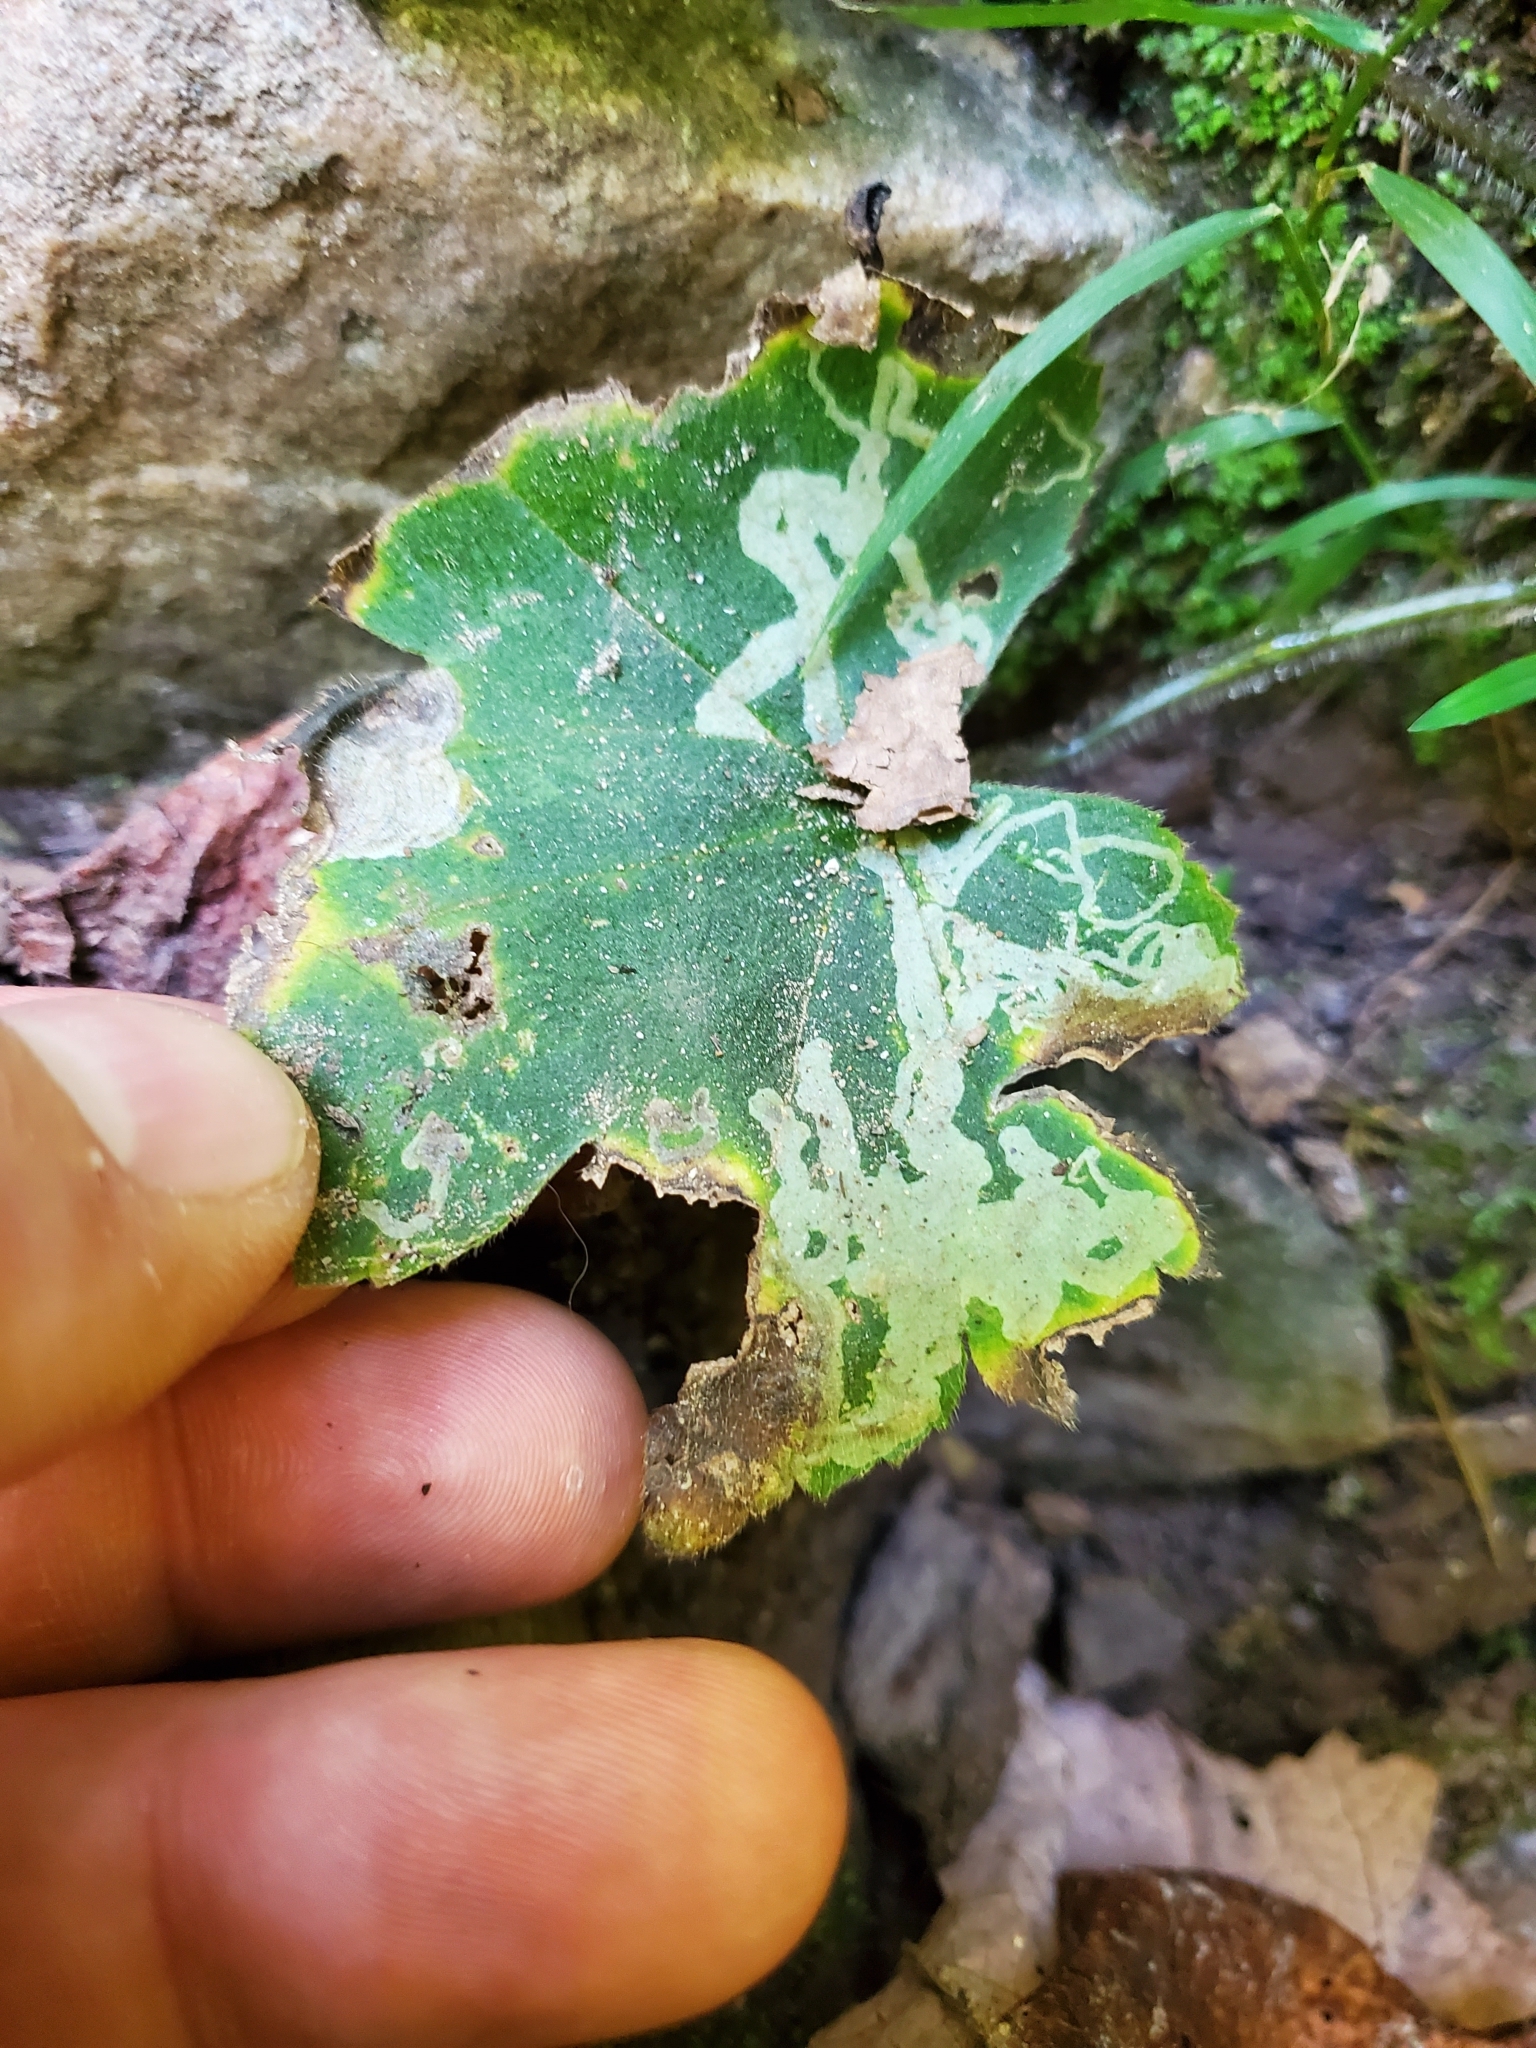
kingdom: Animalia
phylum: Arthropoda
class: Insecta
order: Diptera
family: Agromyzidae
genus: Phytomyza
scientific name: Phytomyza loewii
